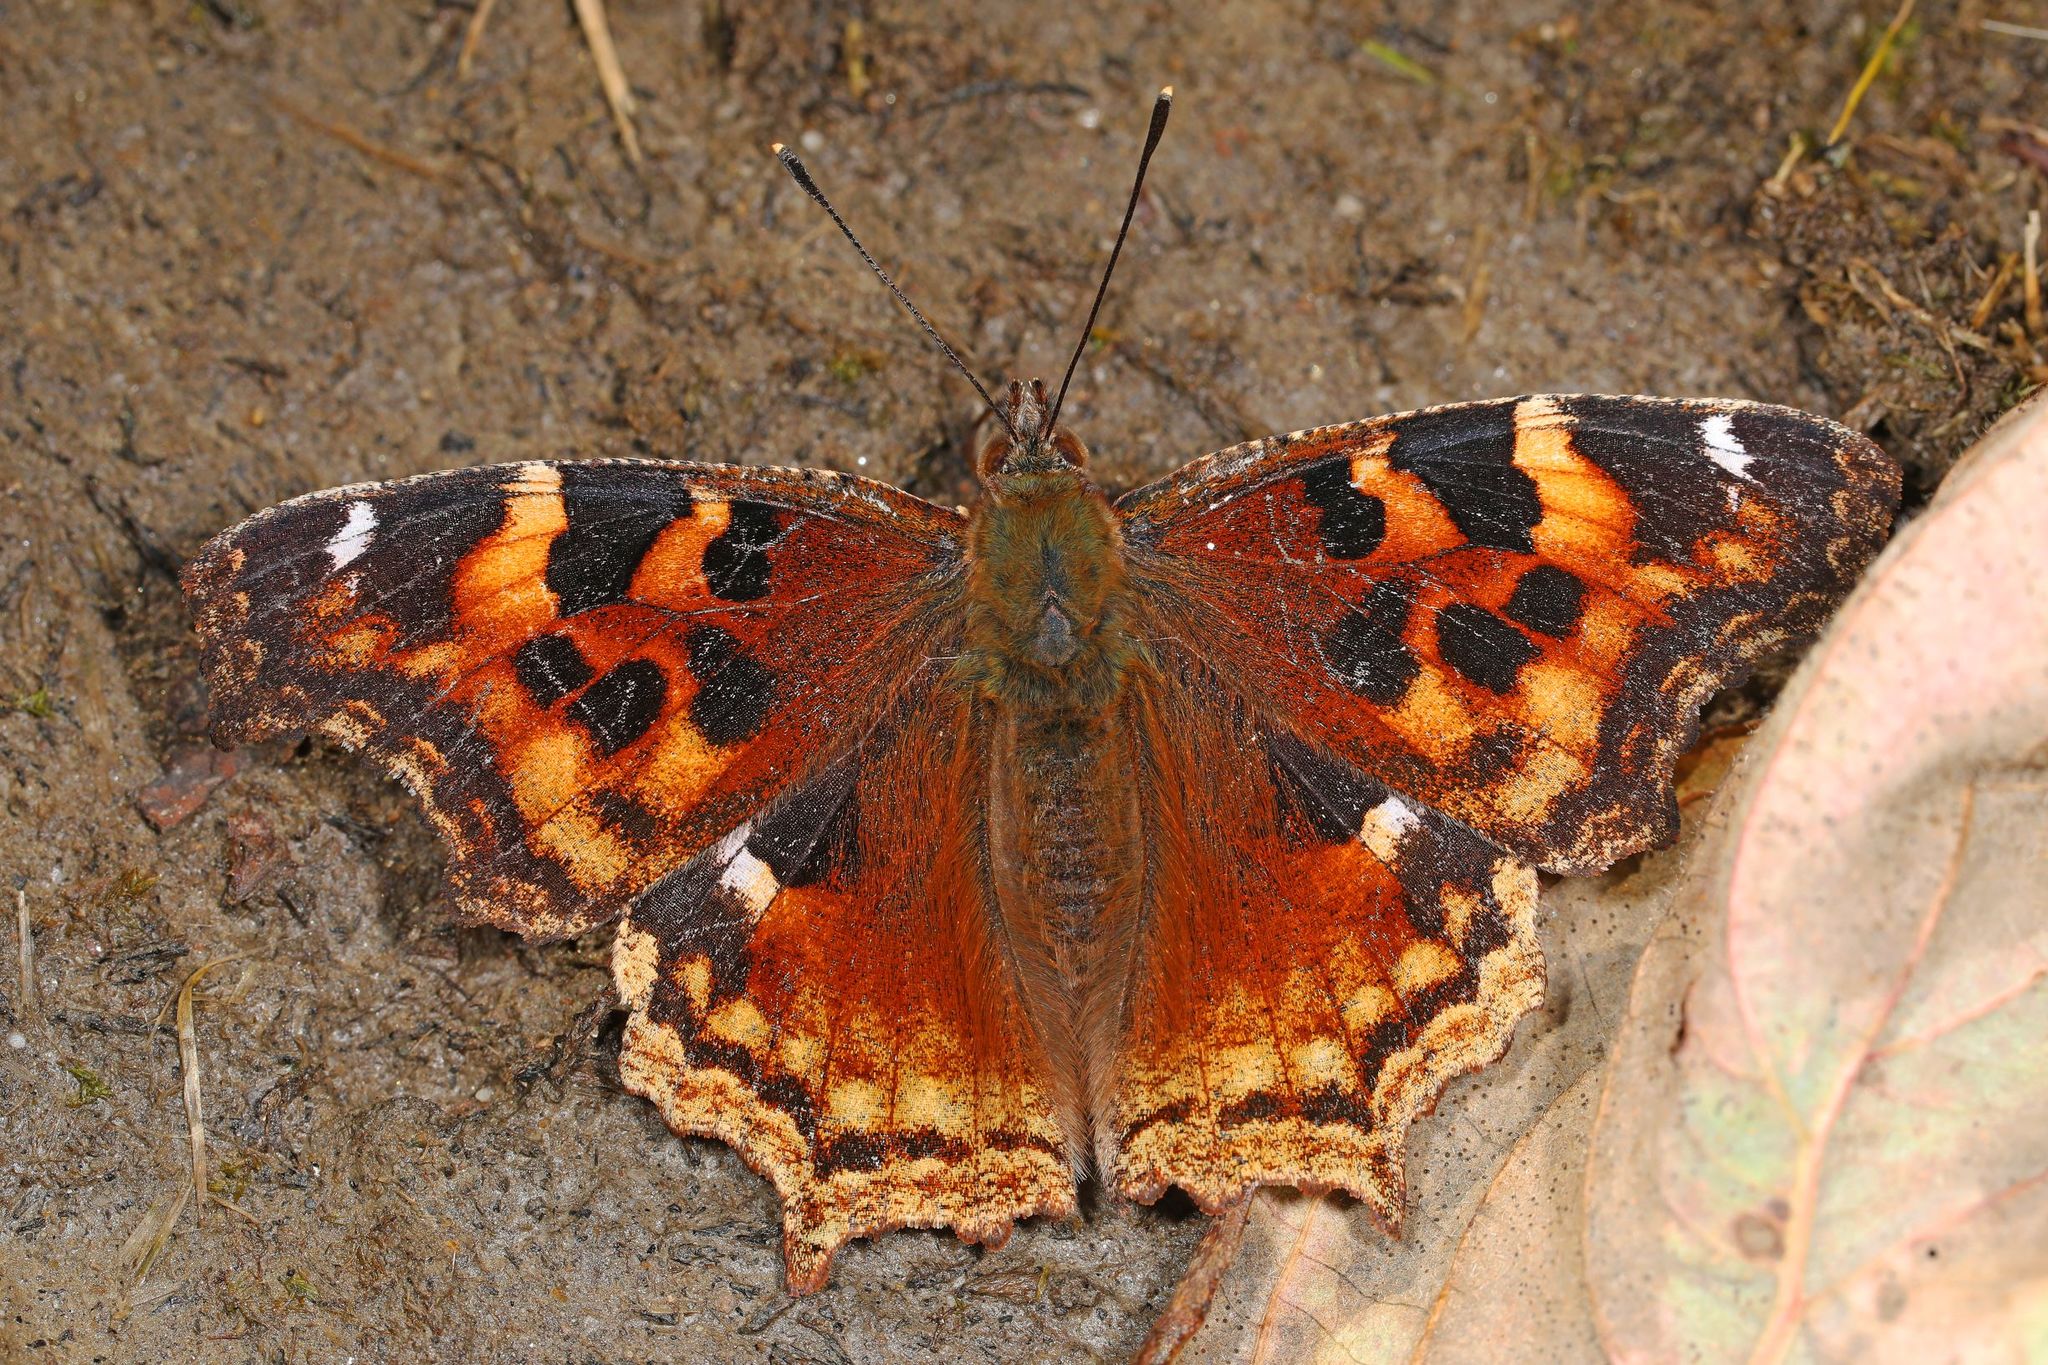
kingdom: Animalia
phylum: Arthropoda
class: Insecta
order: Lepidoptera
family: Nymphalidae
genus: Polygonia
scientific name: Polygonia vaualbum
